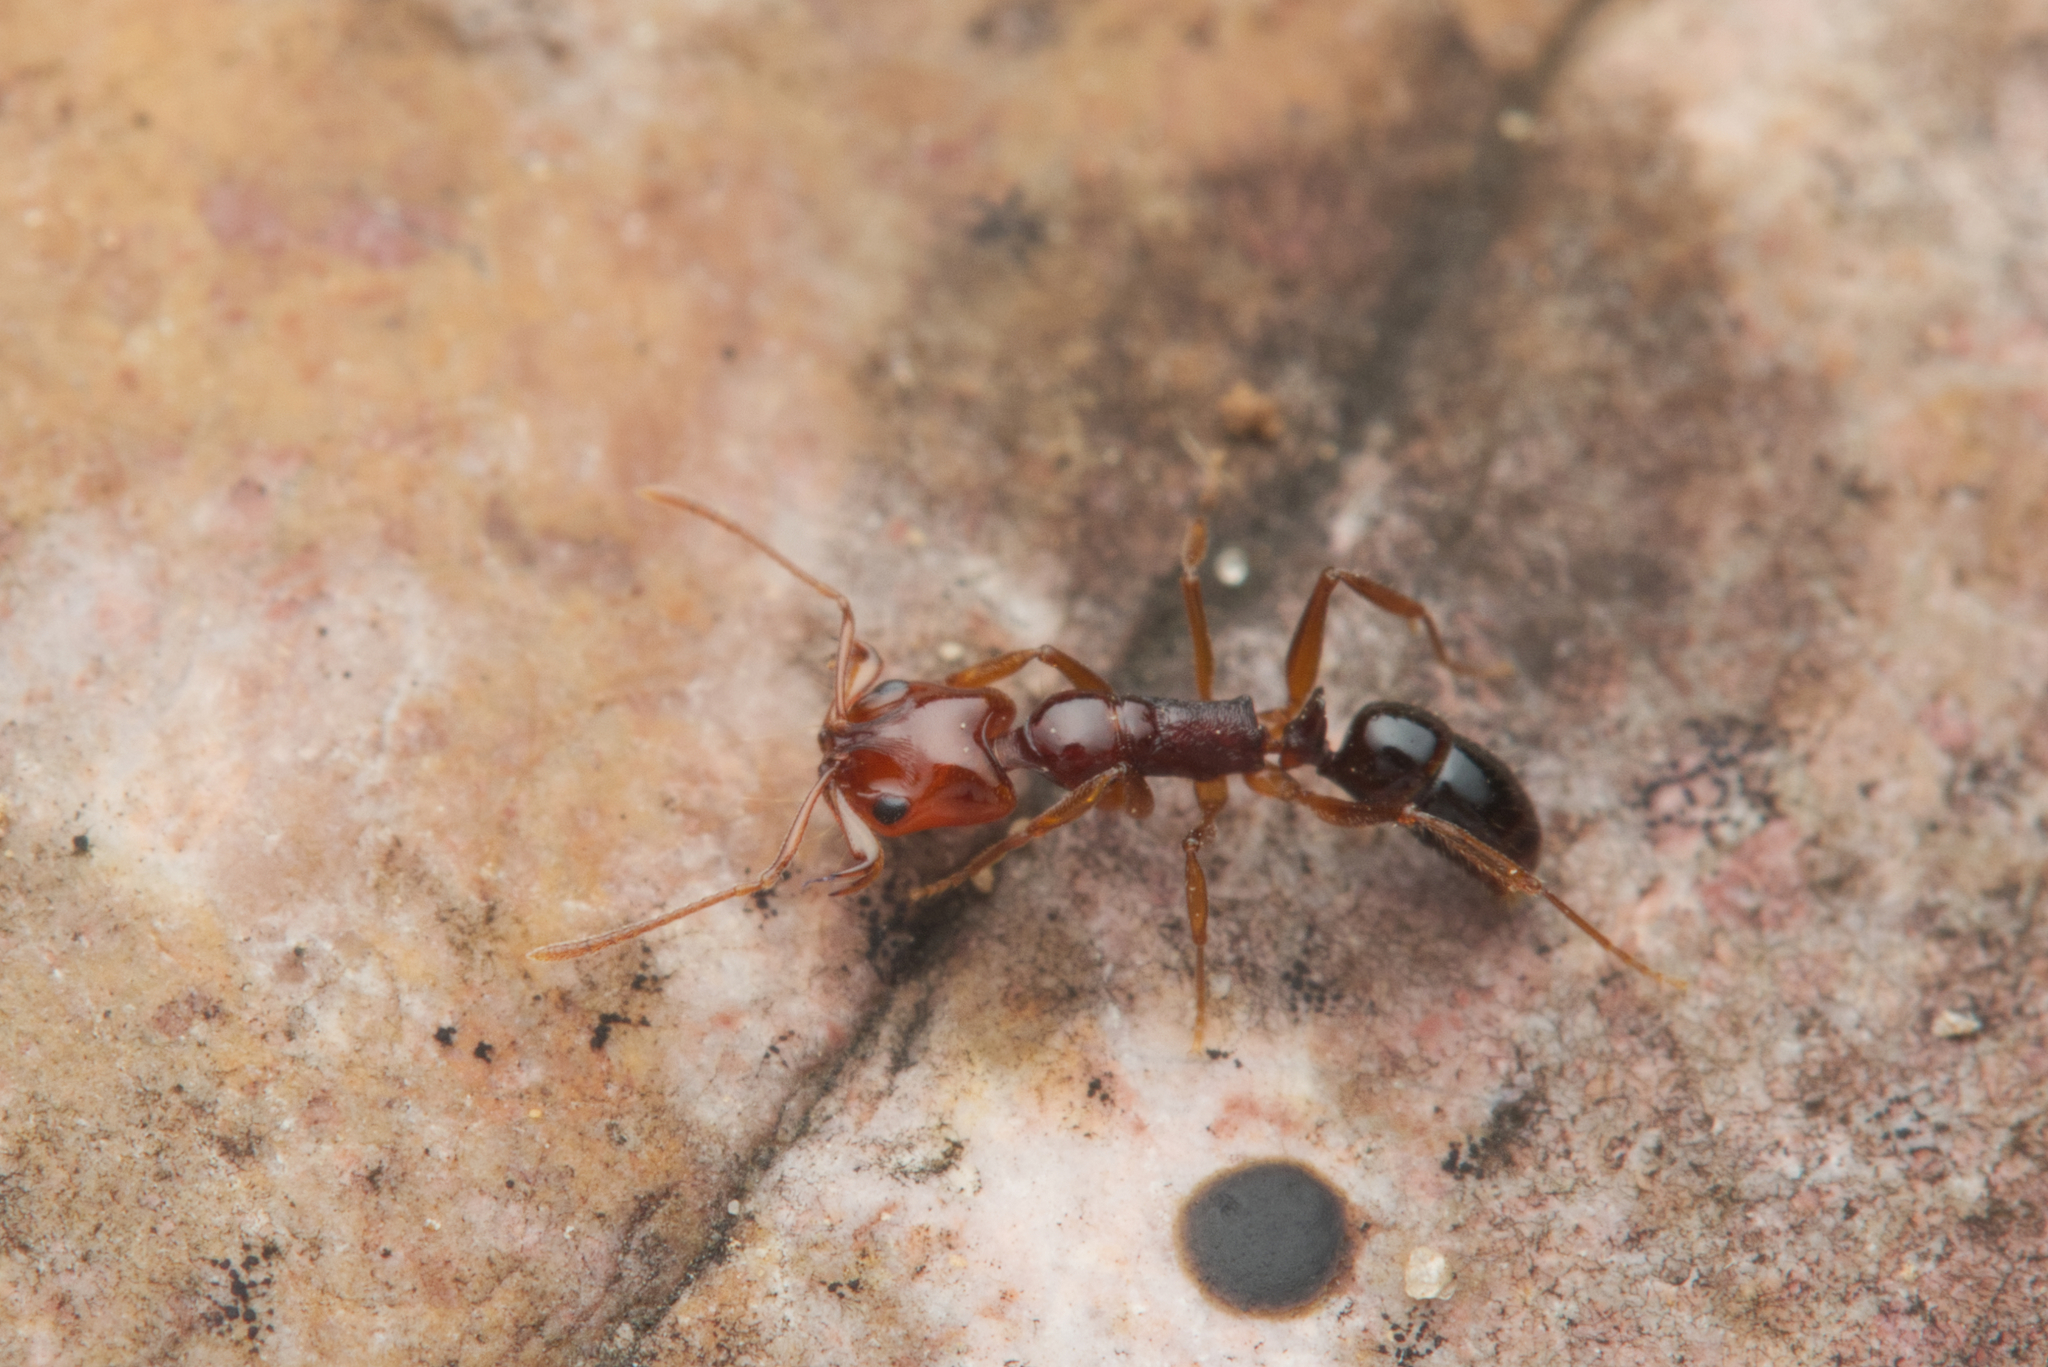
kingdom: Animalia
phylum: Arthropoda
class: Insecta
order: Hymenoptera
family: Formicidae
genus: Anochetus
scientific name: Anochetus rectangularis
